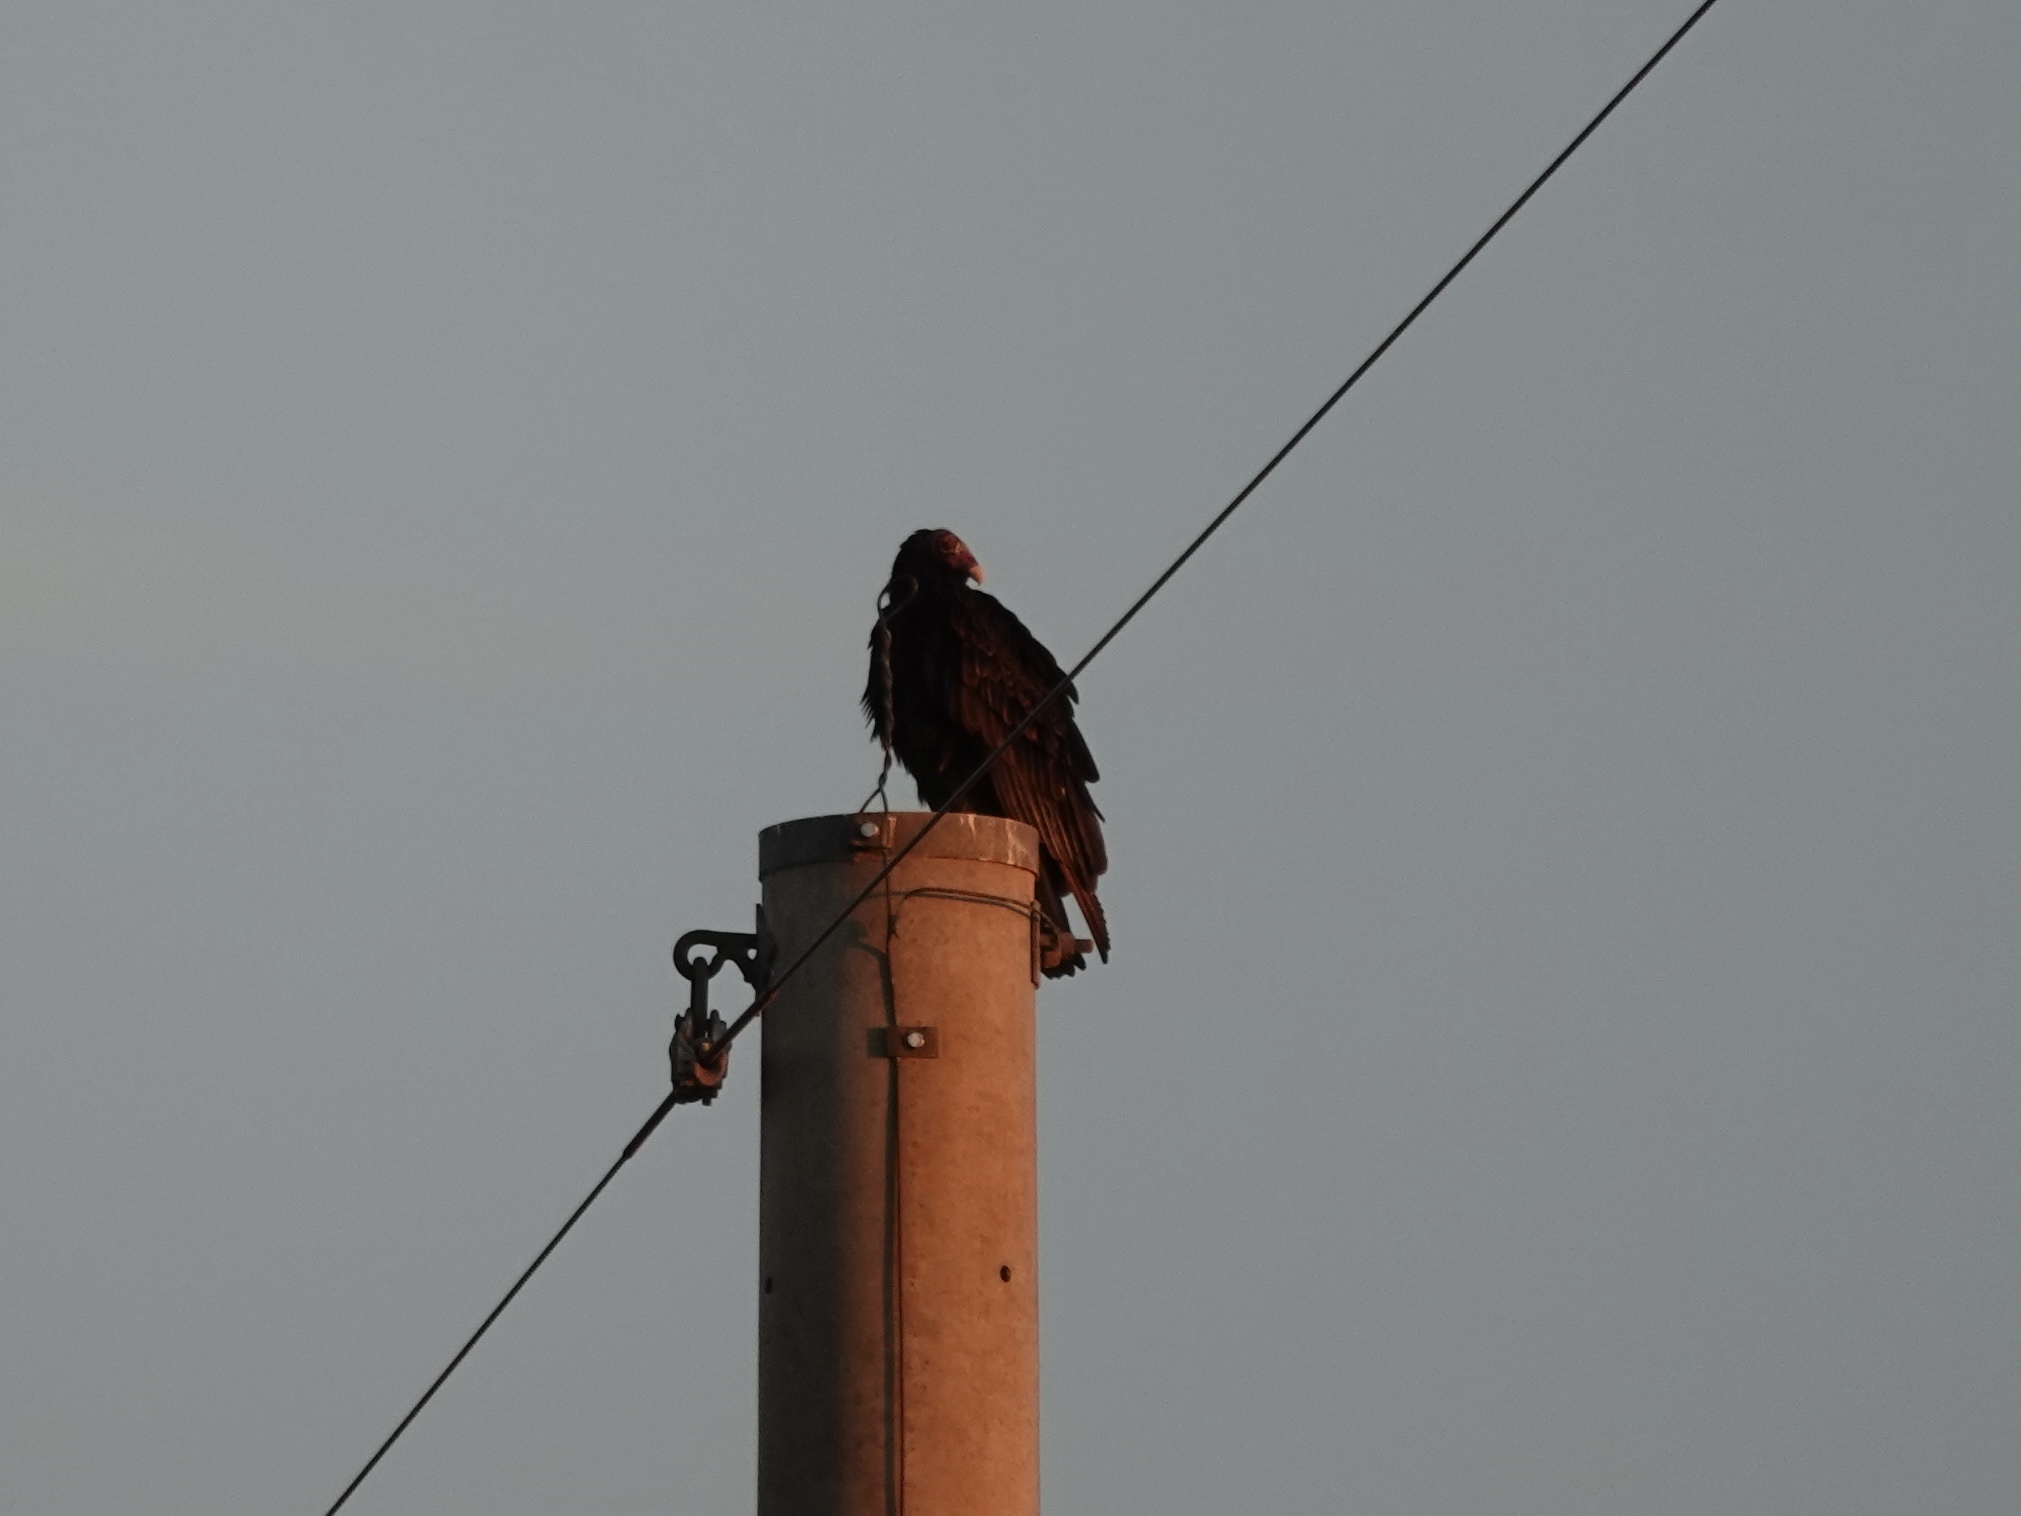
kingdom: Animalia
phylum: Chordata
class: Aves
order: Accipitriformes
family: Cathartidae
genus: Cathartes
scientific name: Cathartes aura
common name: Turkey vulture
